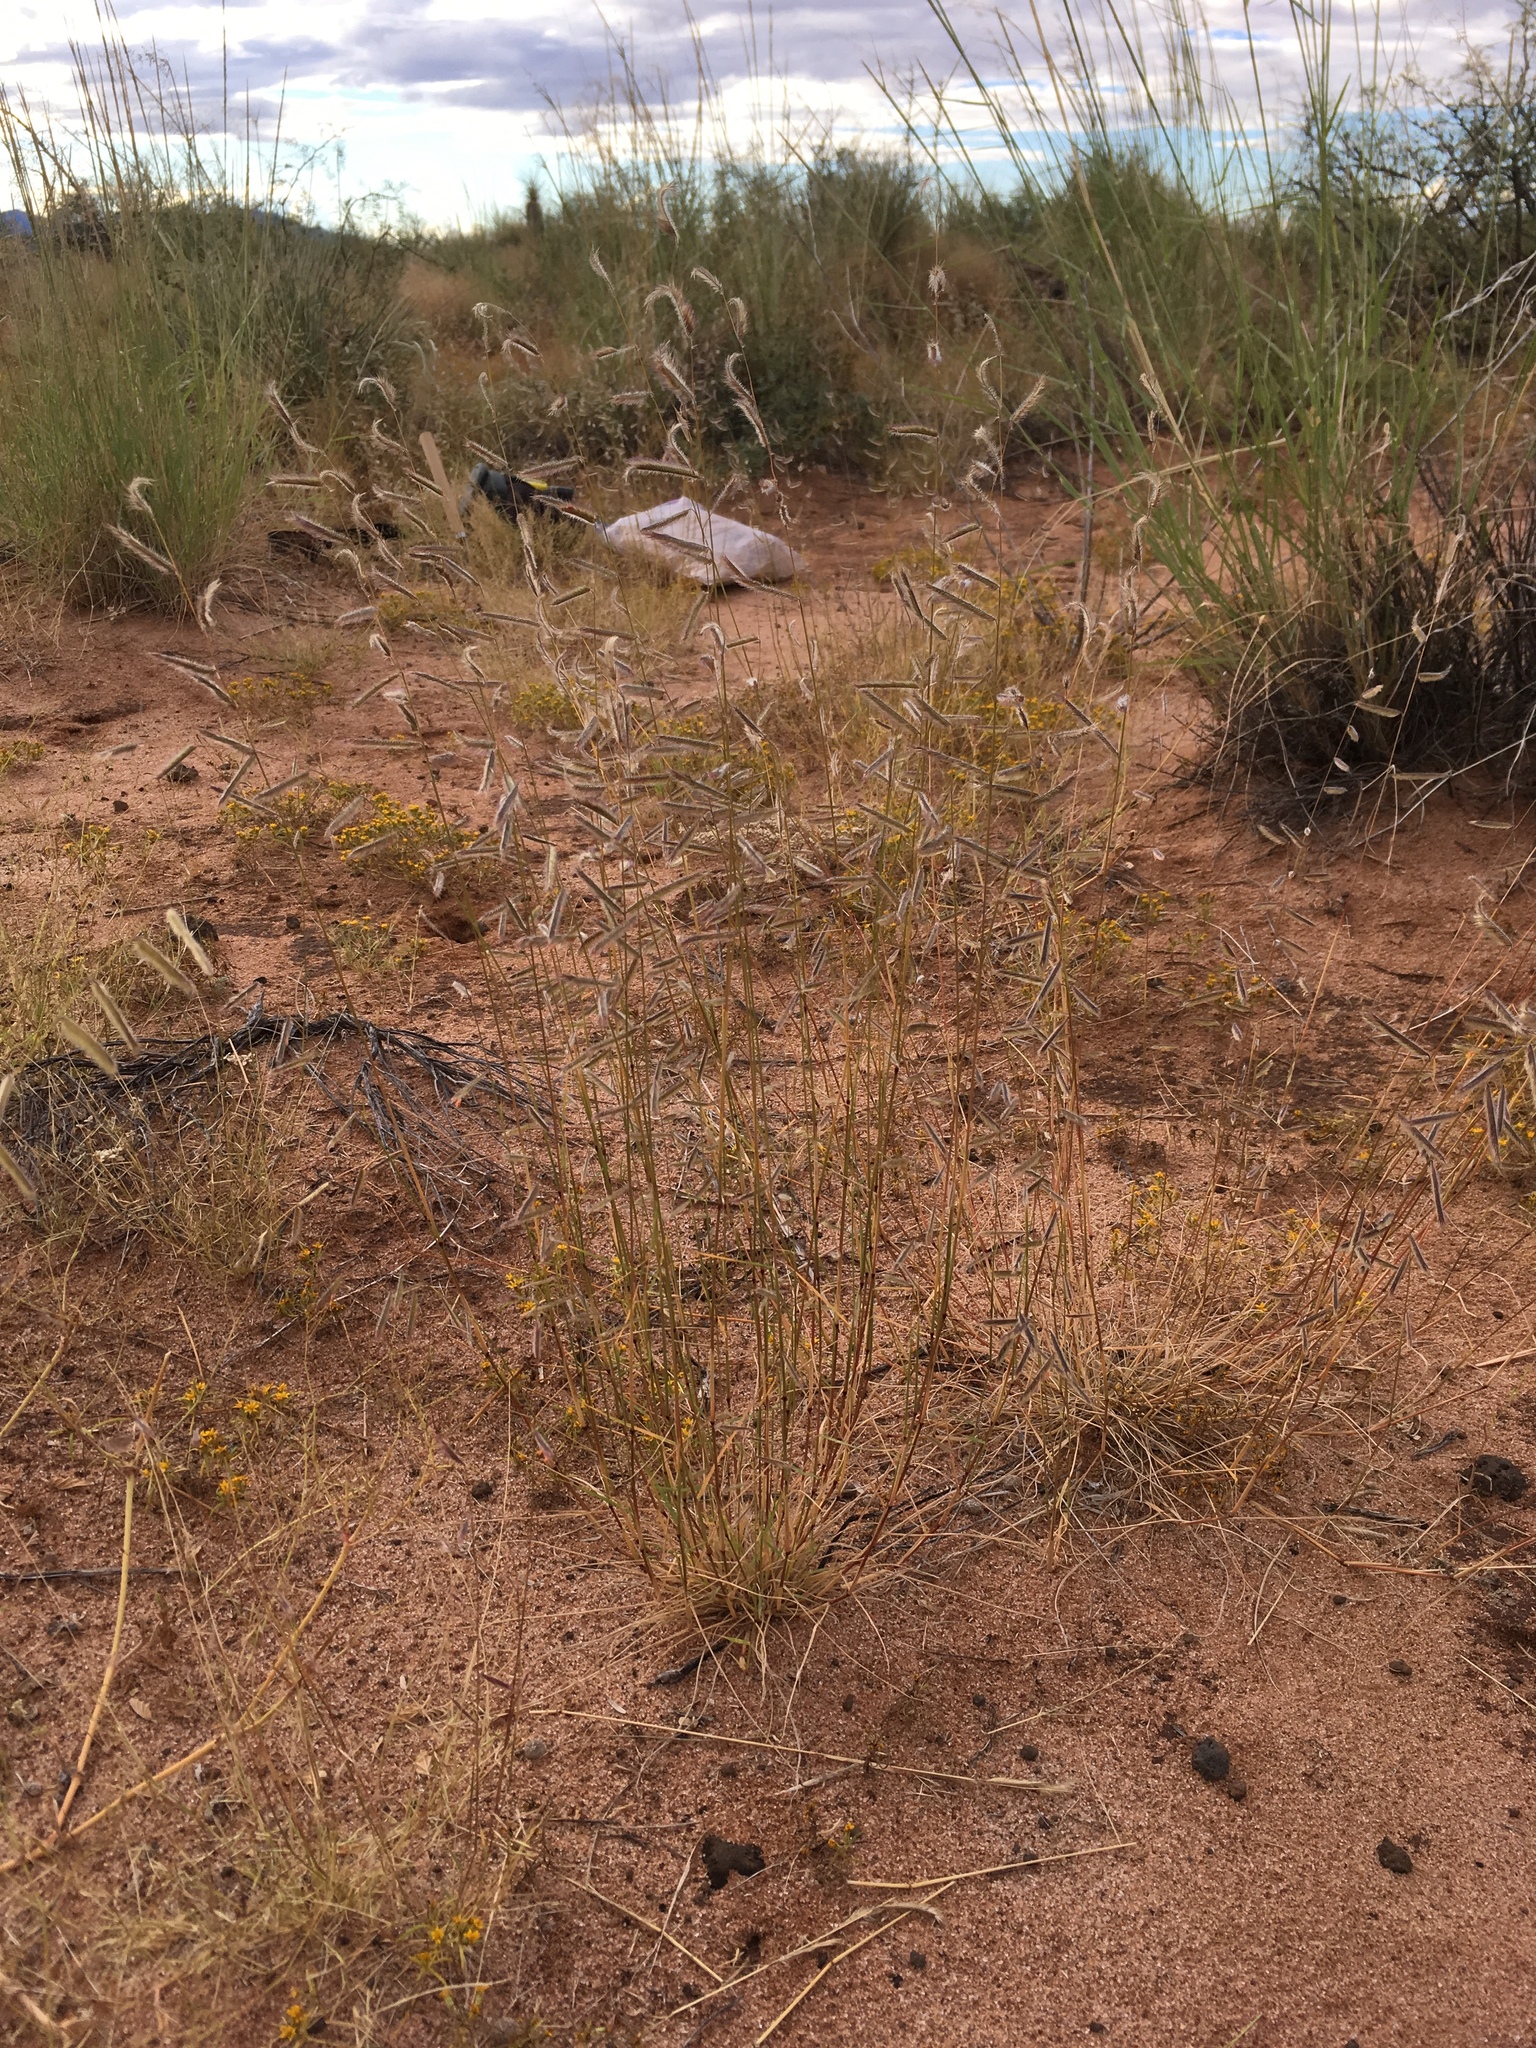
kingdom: Plantae
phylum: Tracheophyta
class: Liliopsida
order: Poales
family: Poaceae
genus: Bouteloua
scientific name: Bouteloua parryi
